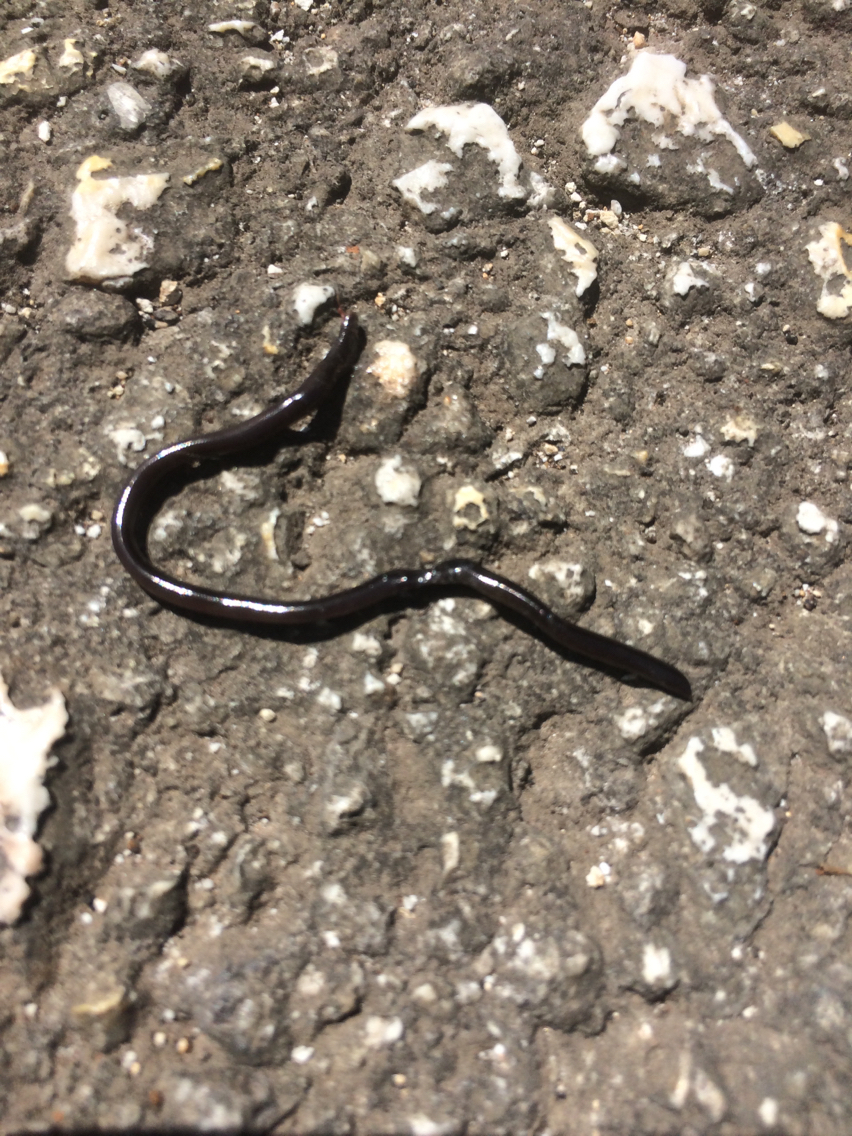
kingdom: Animalia
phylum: Chordata
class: Squamata
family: Typhlopidae
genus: Indotyphlops
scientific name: Indotyphlops braminus
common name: Brahminy blindsnake
